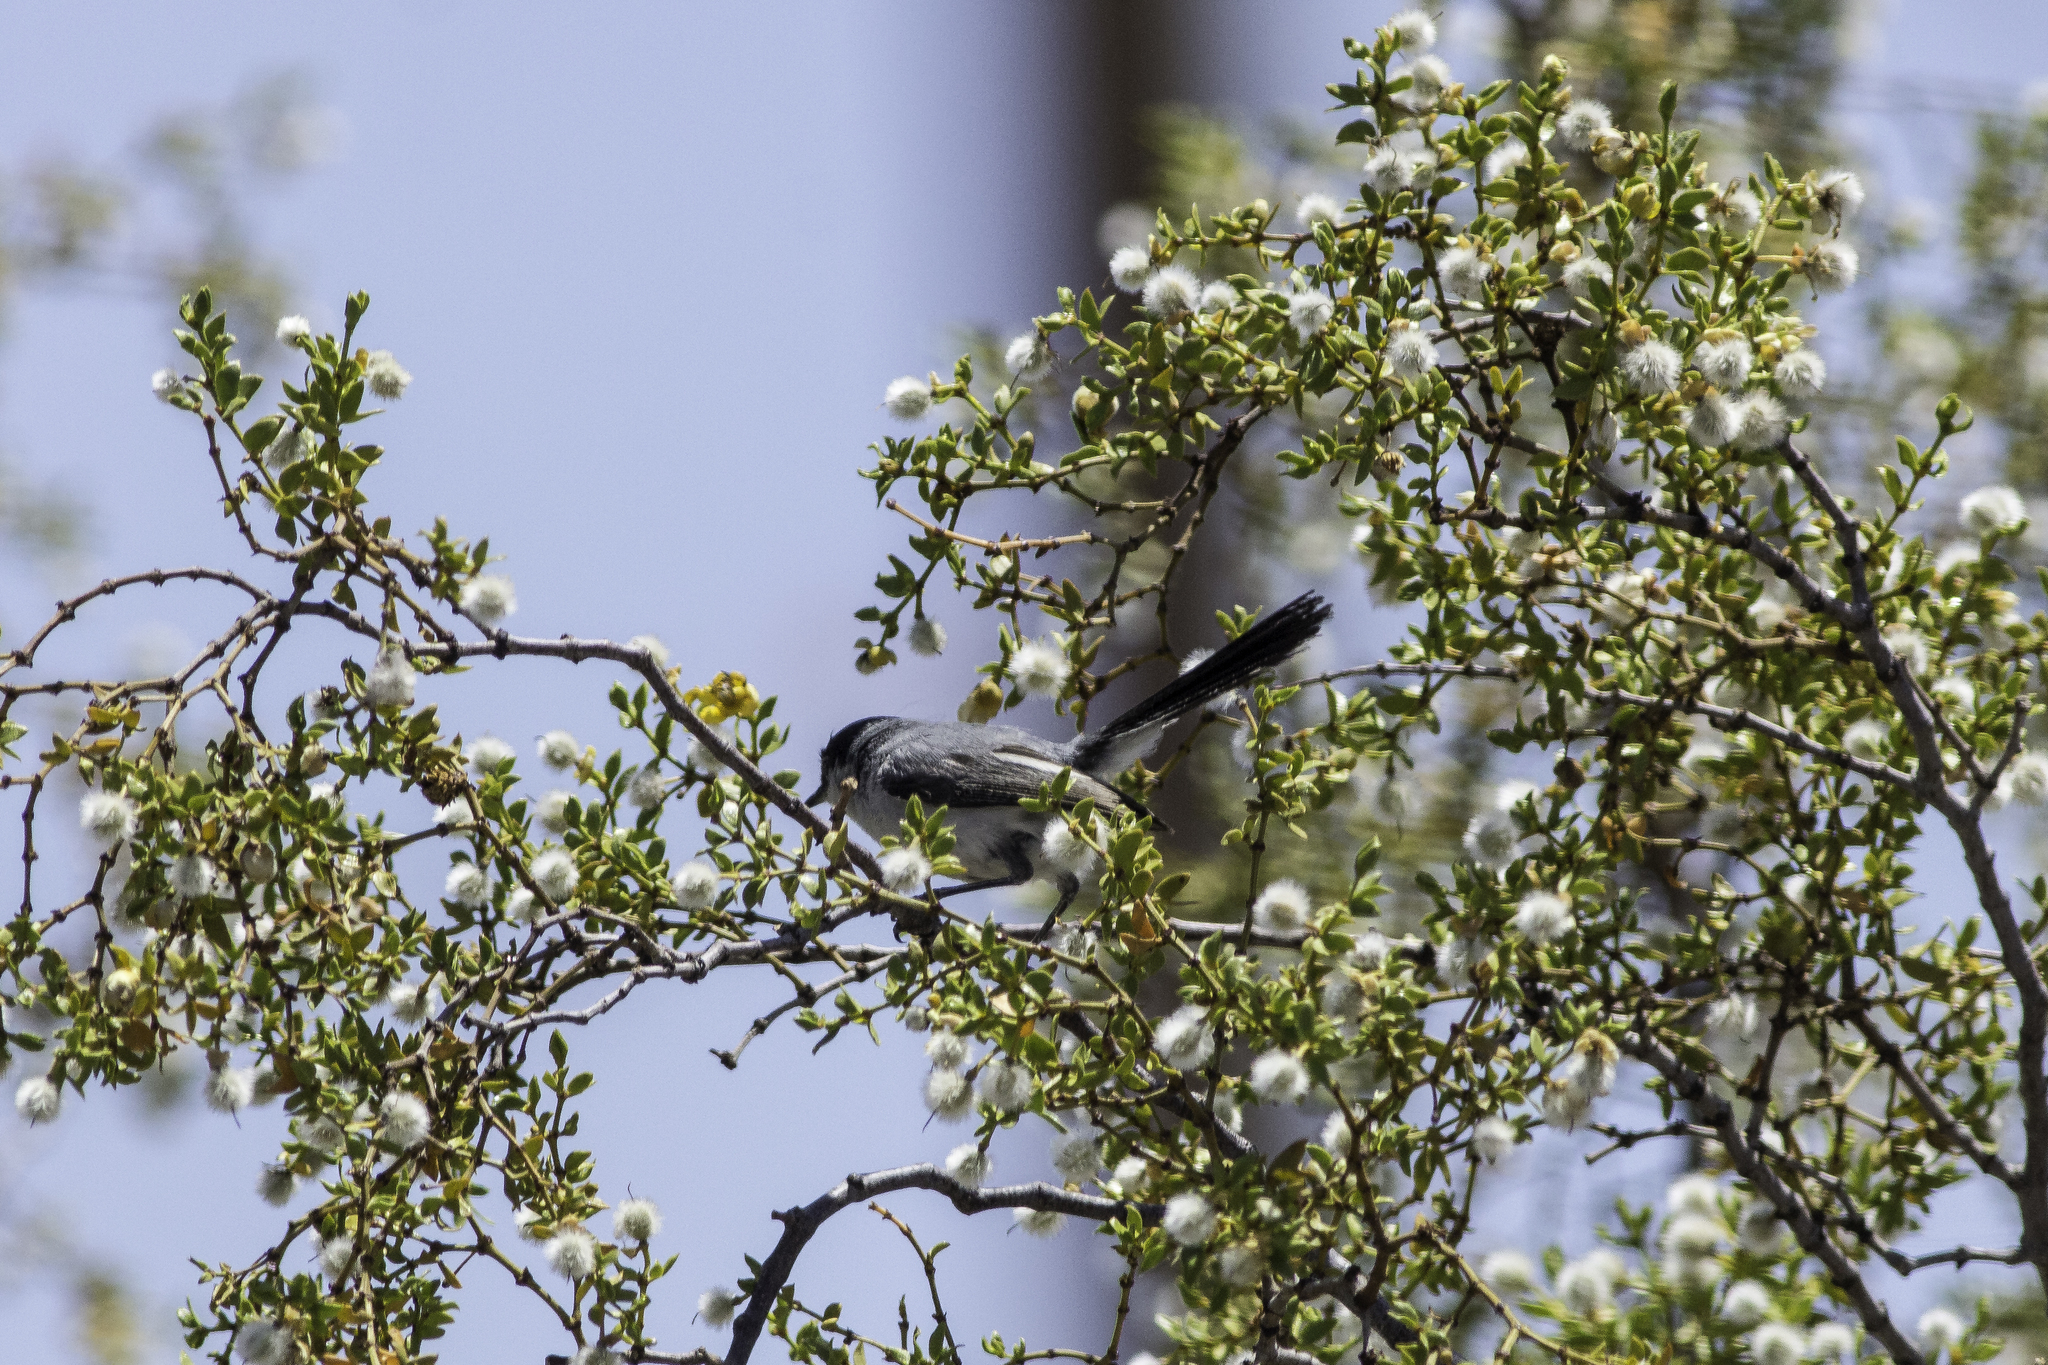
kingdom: Animalia
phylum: Chordata
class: Aves
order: Passeriformes
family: Polioptilidae
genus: Polioptila
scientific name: Polioptila melanura
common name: Black-tailed gnatcatcher
